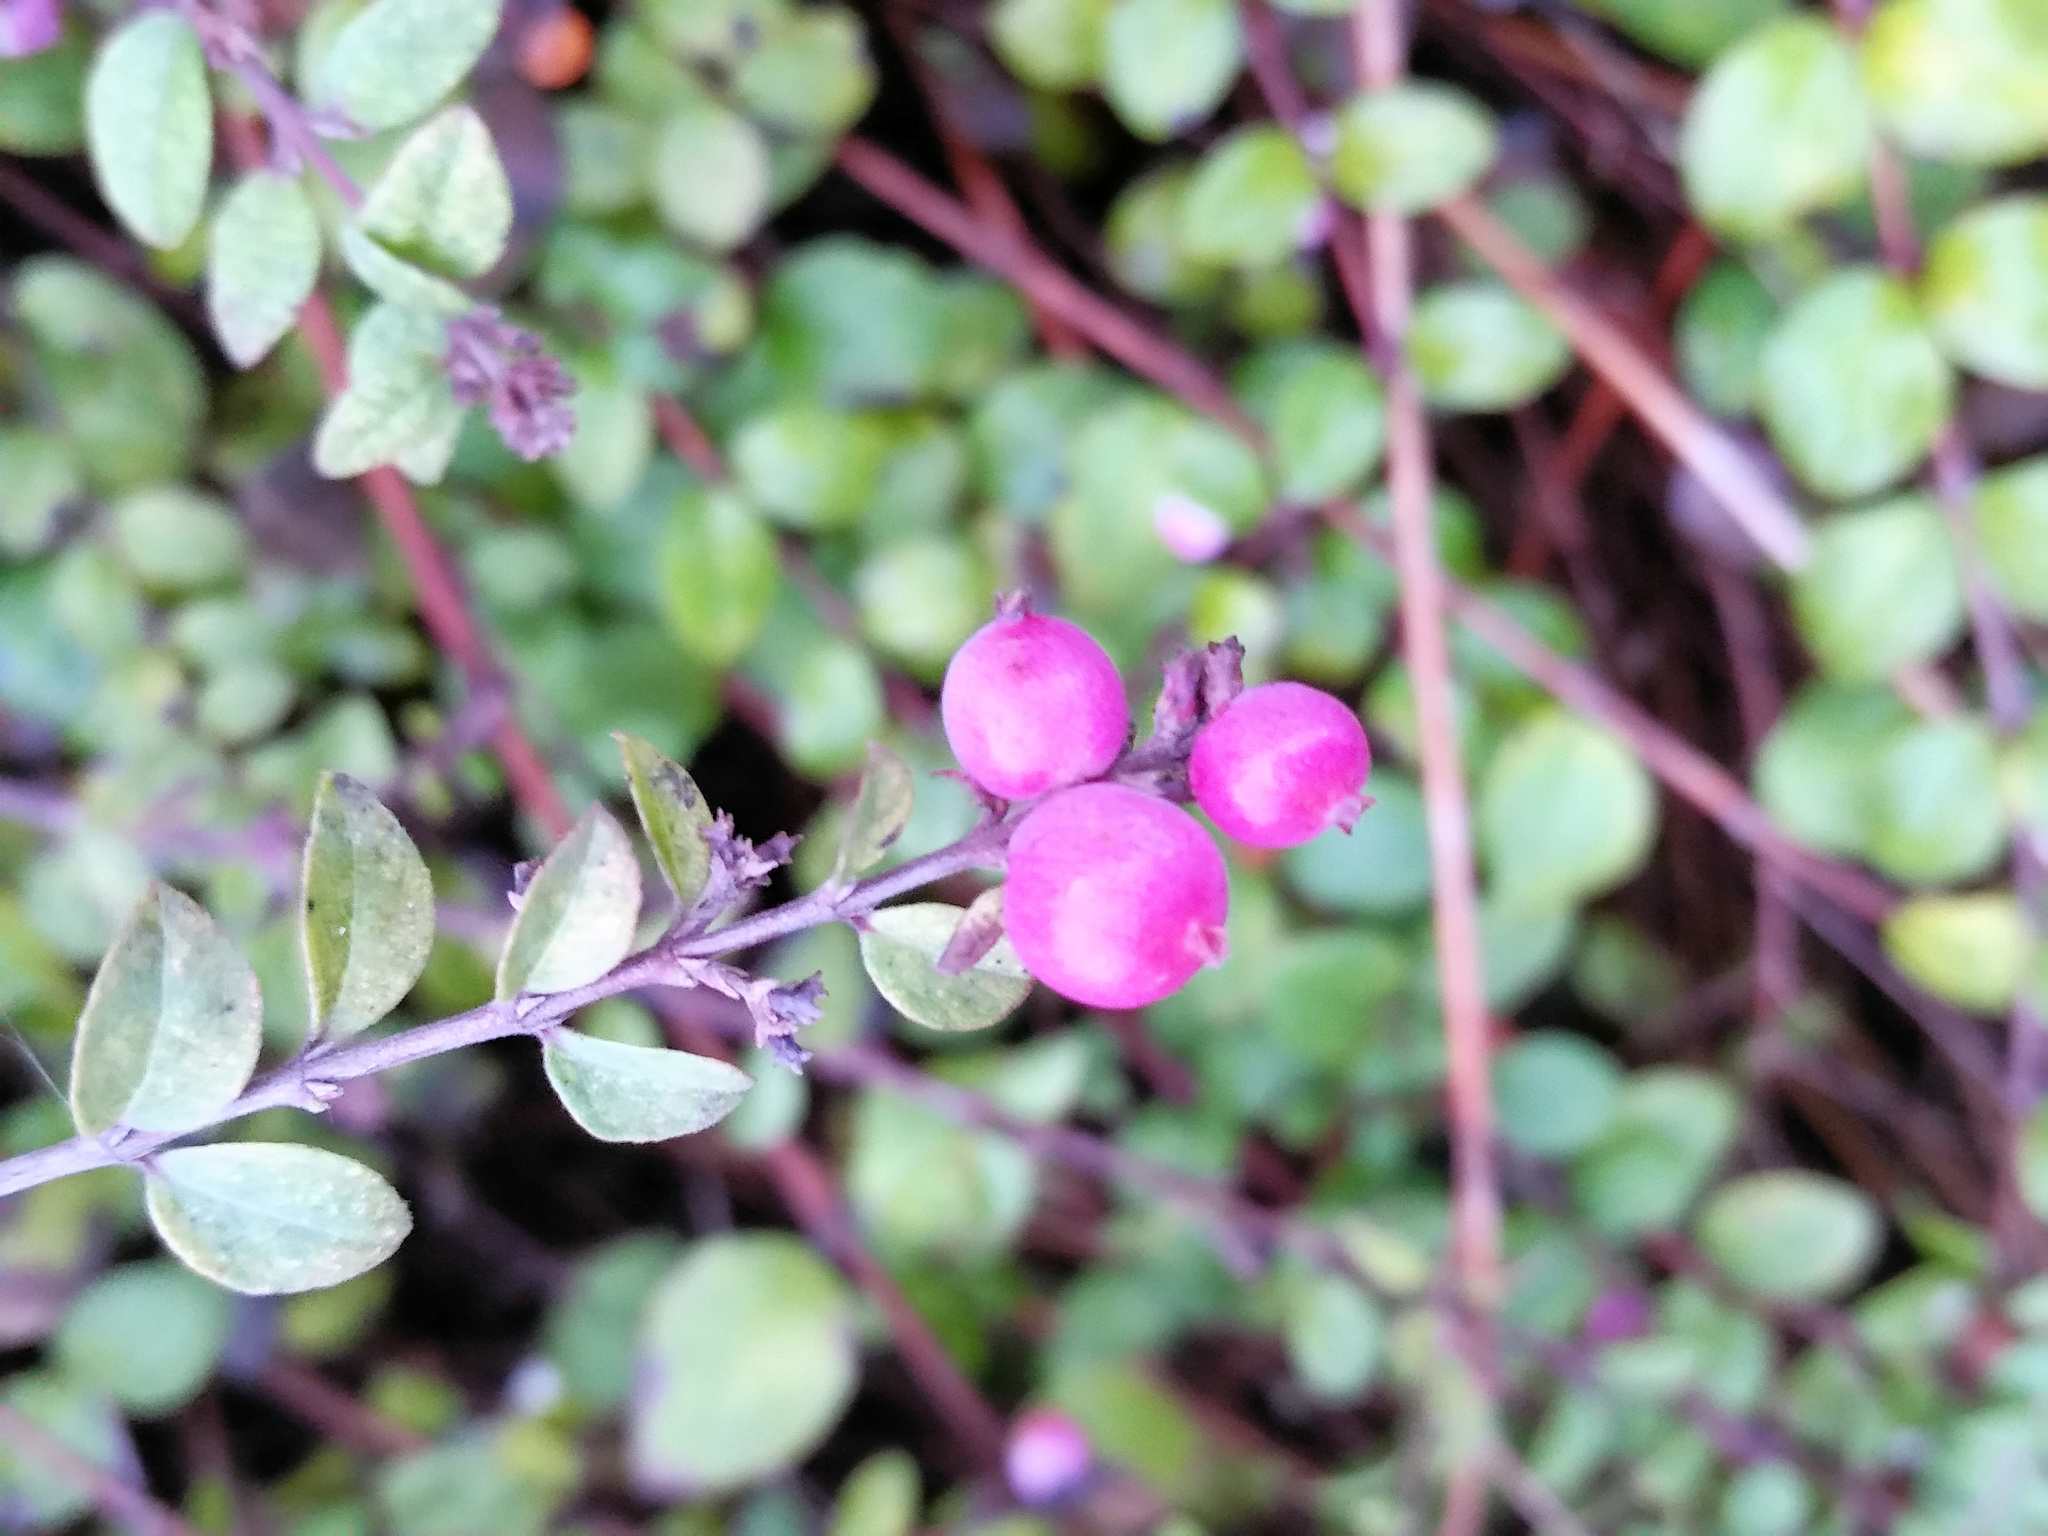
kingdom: Plantae
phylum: Tracheophyta
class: Magnoliopsida
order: Dipsacales
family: Caprifoliaceae
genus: Symphoricarpos
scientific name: Symphoricarpos chenaultii
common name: Hybrid coralberry
